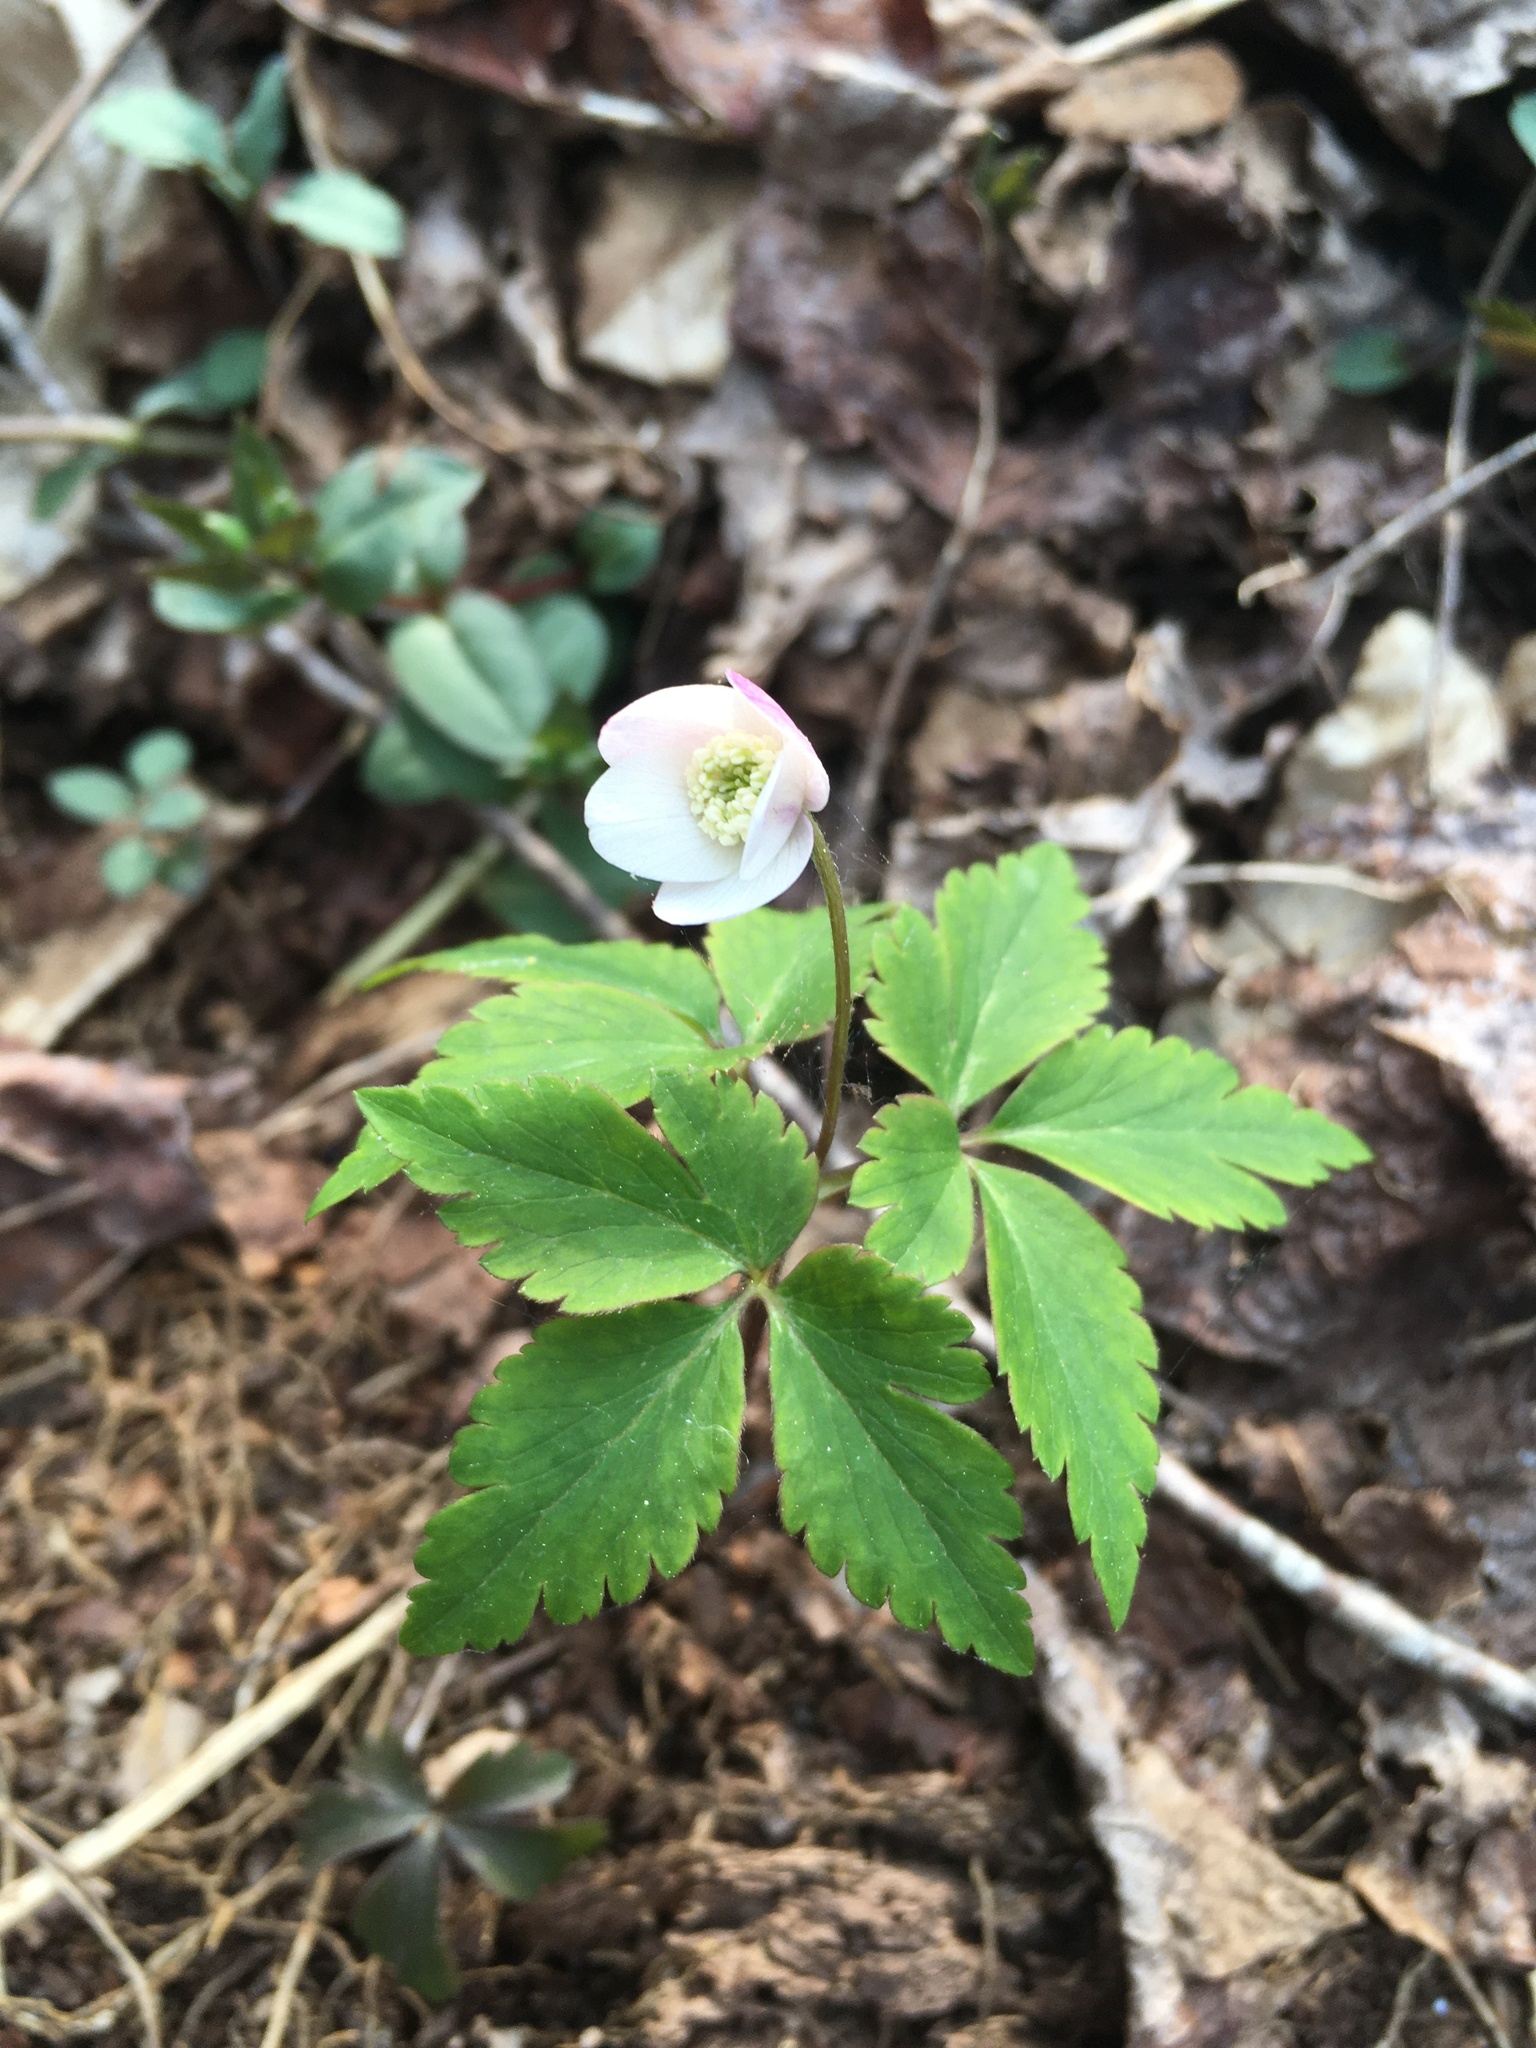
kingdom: Plantae
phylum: Tracheophyta
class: Magnoliopsida
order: Ranunculales
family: Ranunculaceae
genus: Anemone
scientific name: Anemone quinquefolia
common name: Wood anemone
